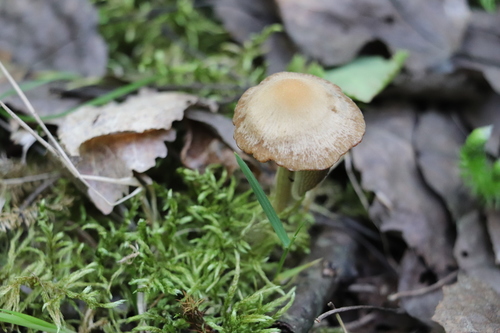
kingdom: Fungi
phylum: Basidiomycota
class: Agaricomycetes
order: Agaricales
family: Psathyrellaceae
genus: Psathyrella
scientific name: Psathyrella noli-tangere
